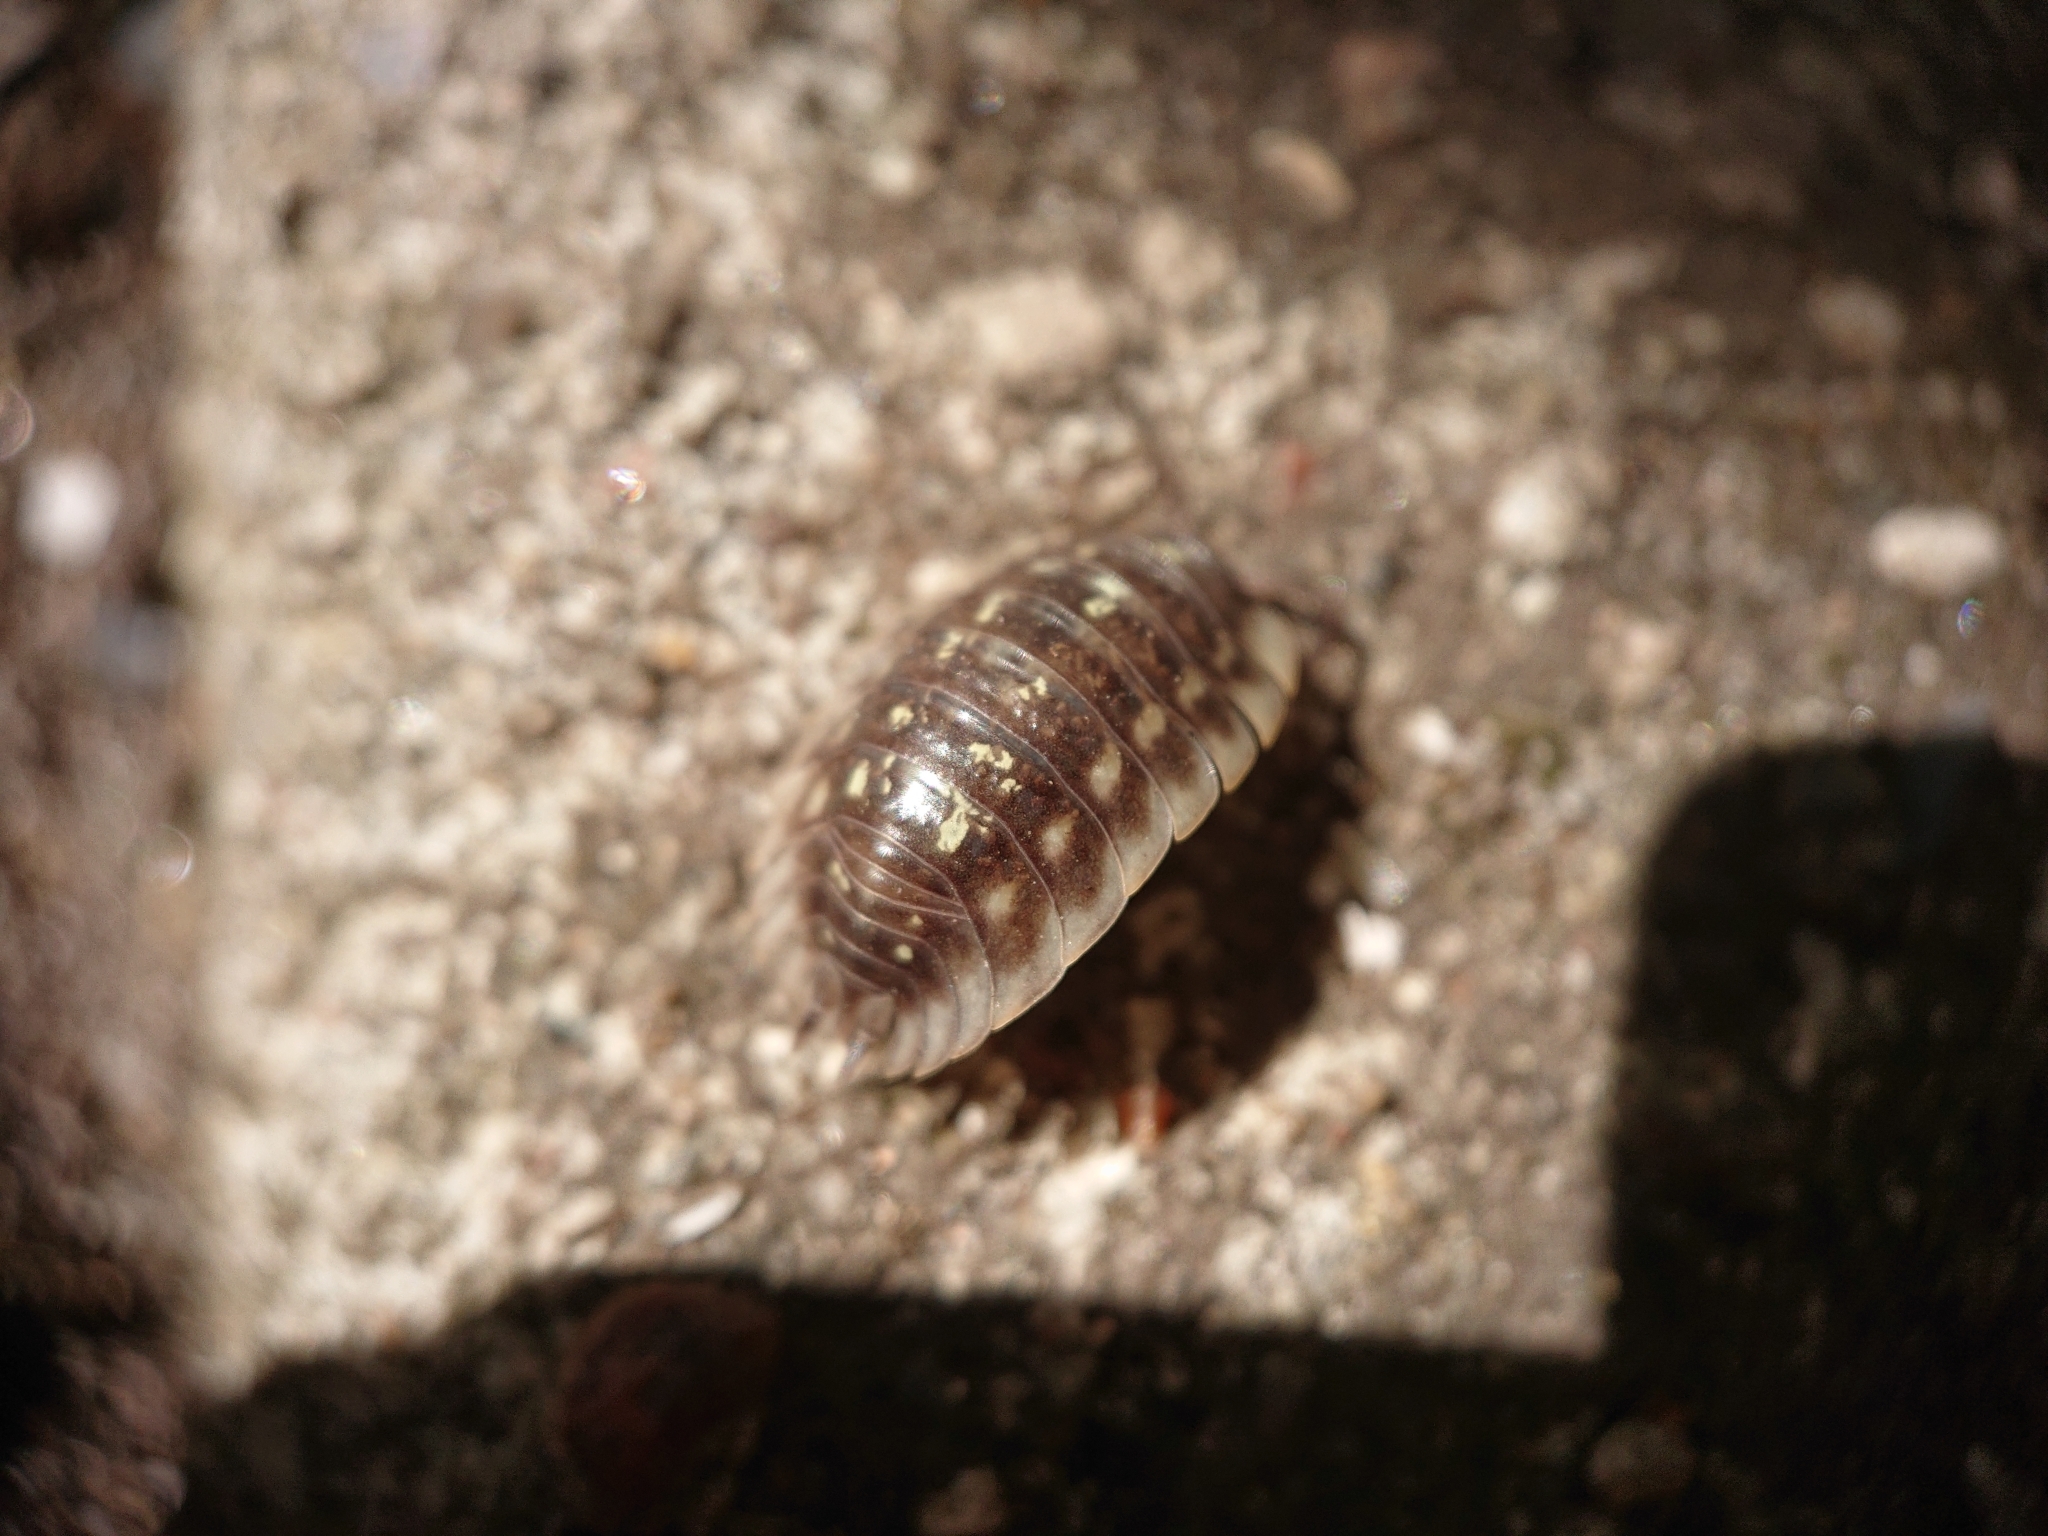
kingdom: Animalia
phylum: Arthropoda
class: Malacostraca
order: Isopoda
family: Oniscidae
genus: Oniscus
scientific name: Oniscus asellus
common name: Common shiny woodlouse
